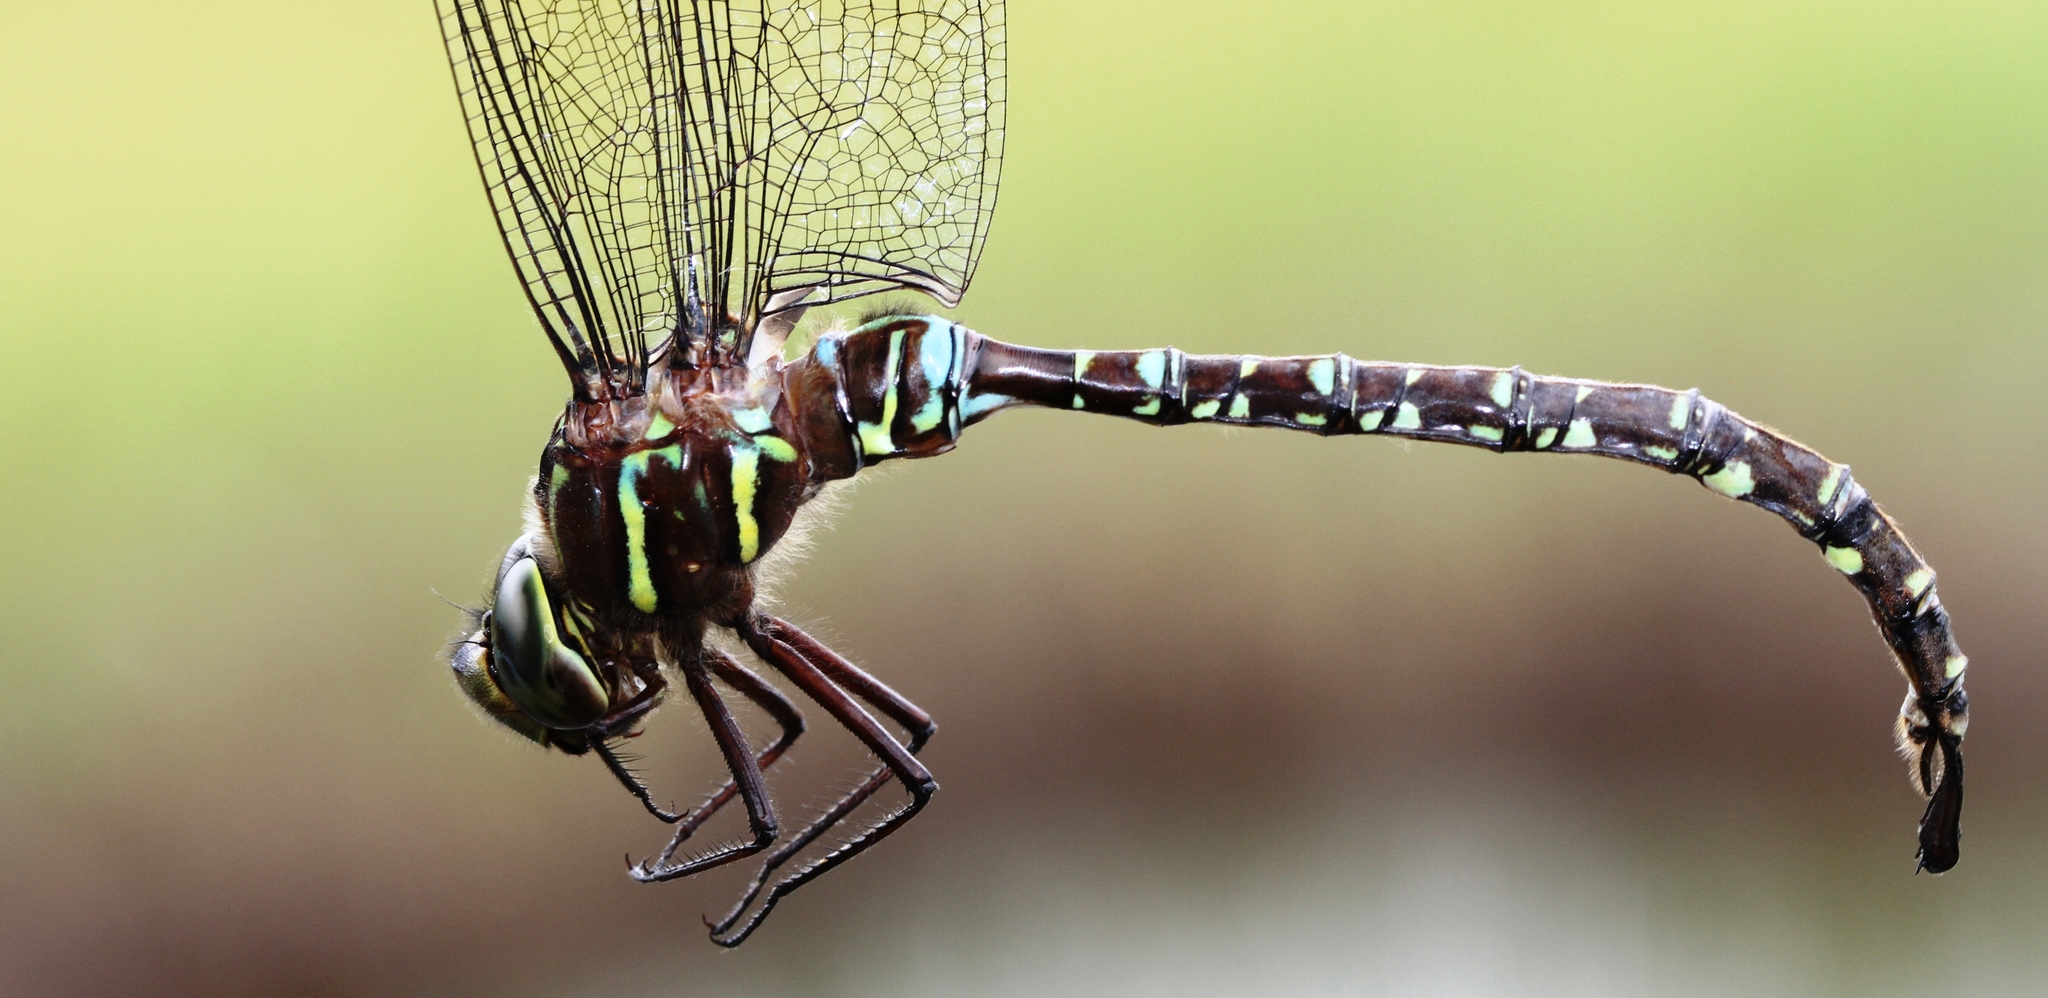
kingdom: Animalia
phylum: Arthropoda
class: Insecta
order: Odonata
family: Aeshnidae
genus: Aeshna
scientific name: Aeshna umbrosa
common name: Shadow darner
